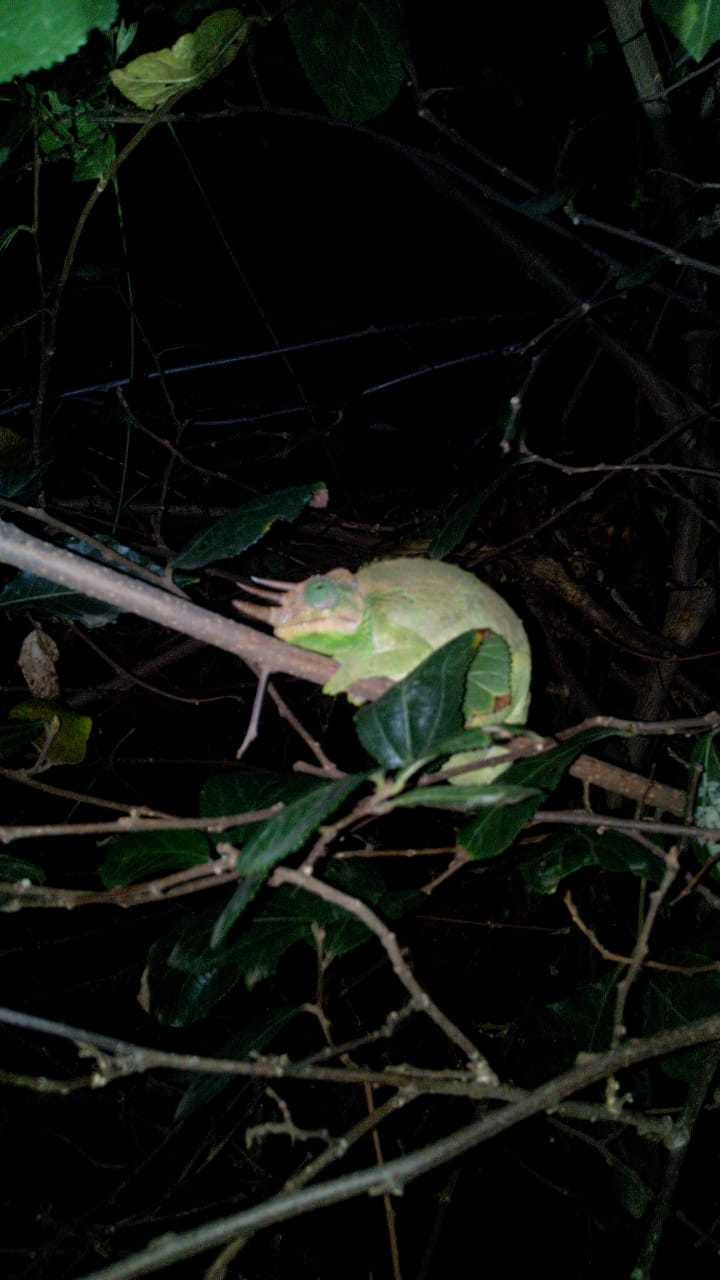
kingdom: Animalia
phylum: Chordata
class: Squamata
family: Chamaeleonidae
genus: Trioceros
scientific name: Trioceros jacksonii
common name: Jackson's chameleon
